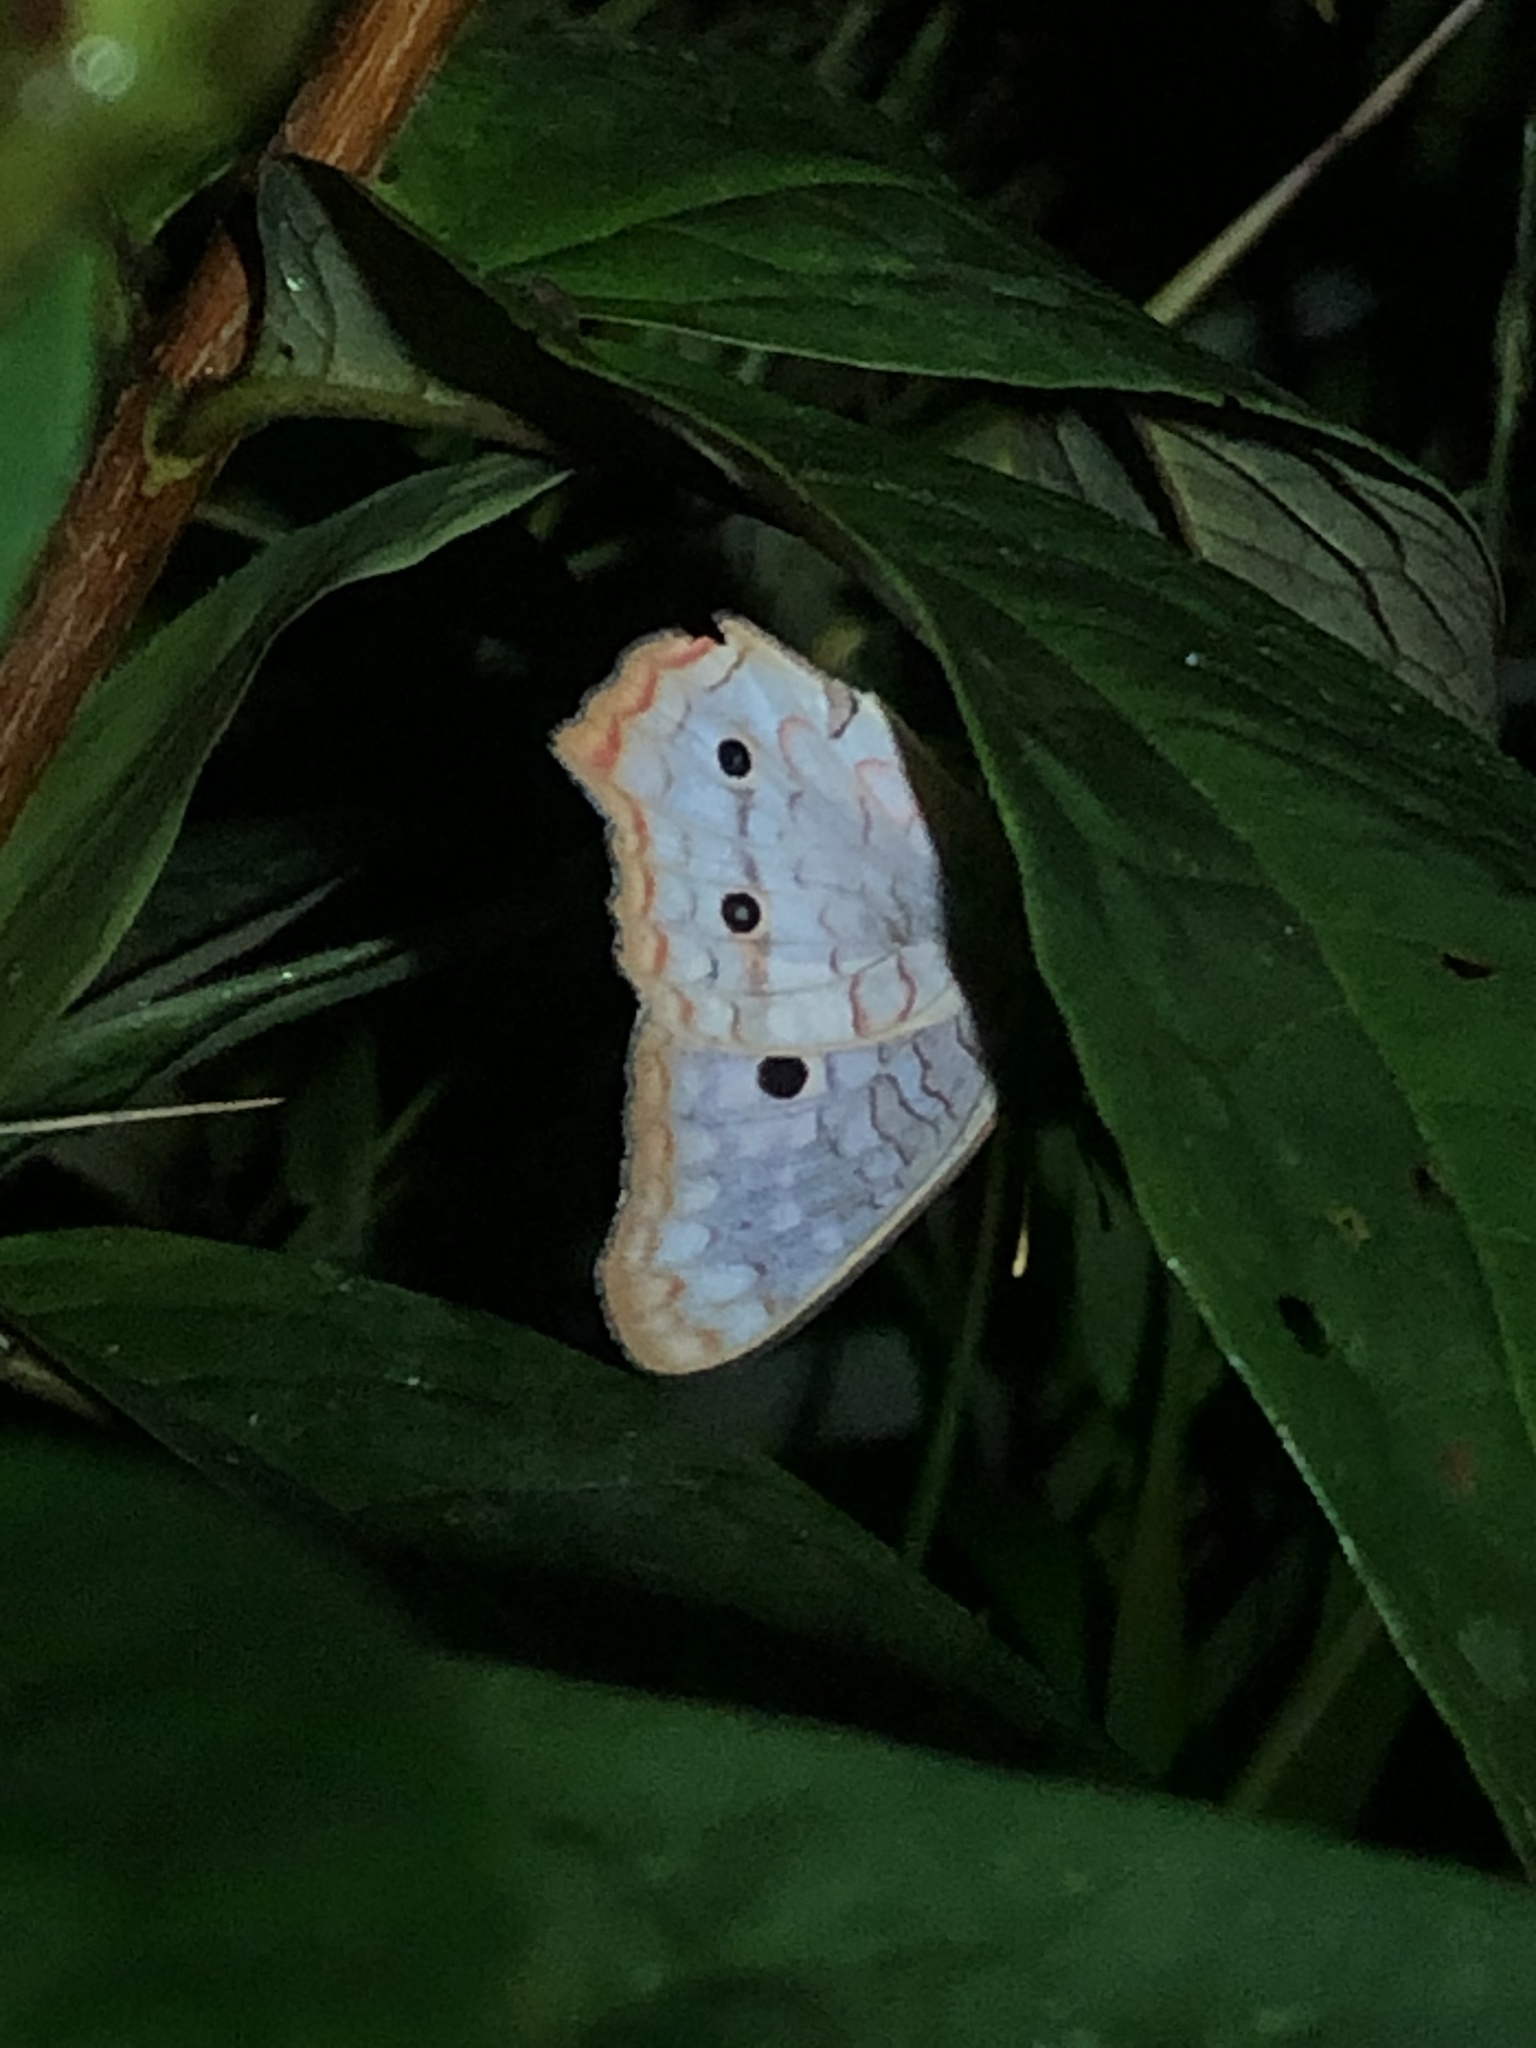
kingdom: Animalia
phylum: Arthropoda
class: Insecta
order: Lepidoptera
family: Nymphalidae
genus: Anartia
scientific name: Anartia jatrophae
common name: White peacock
